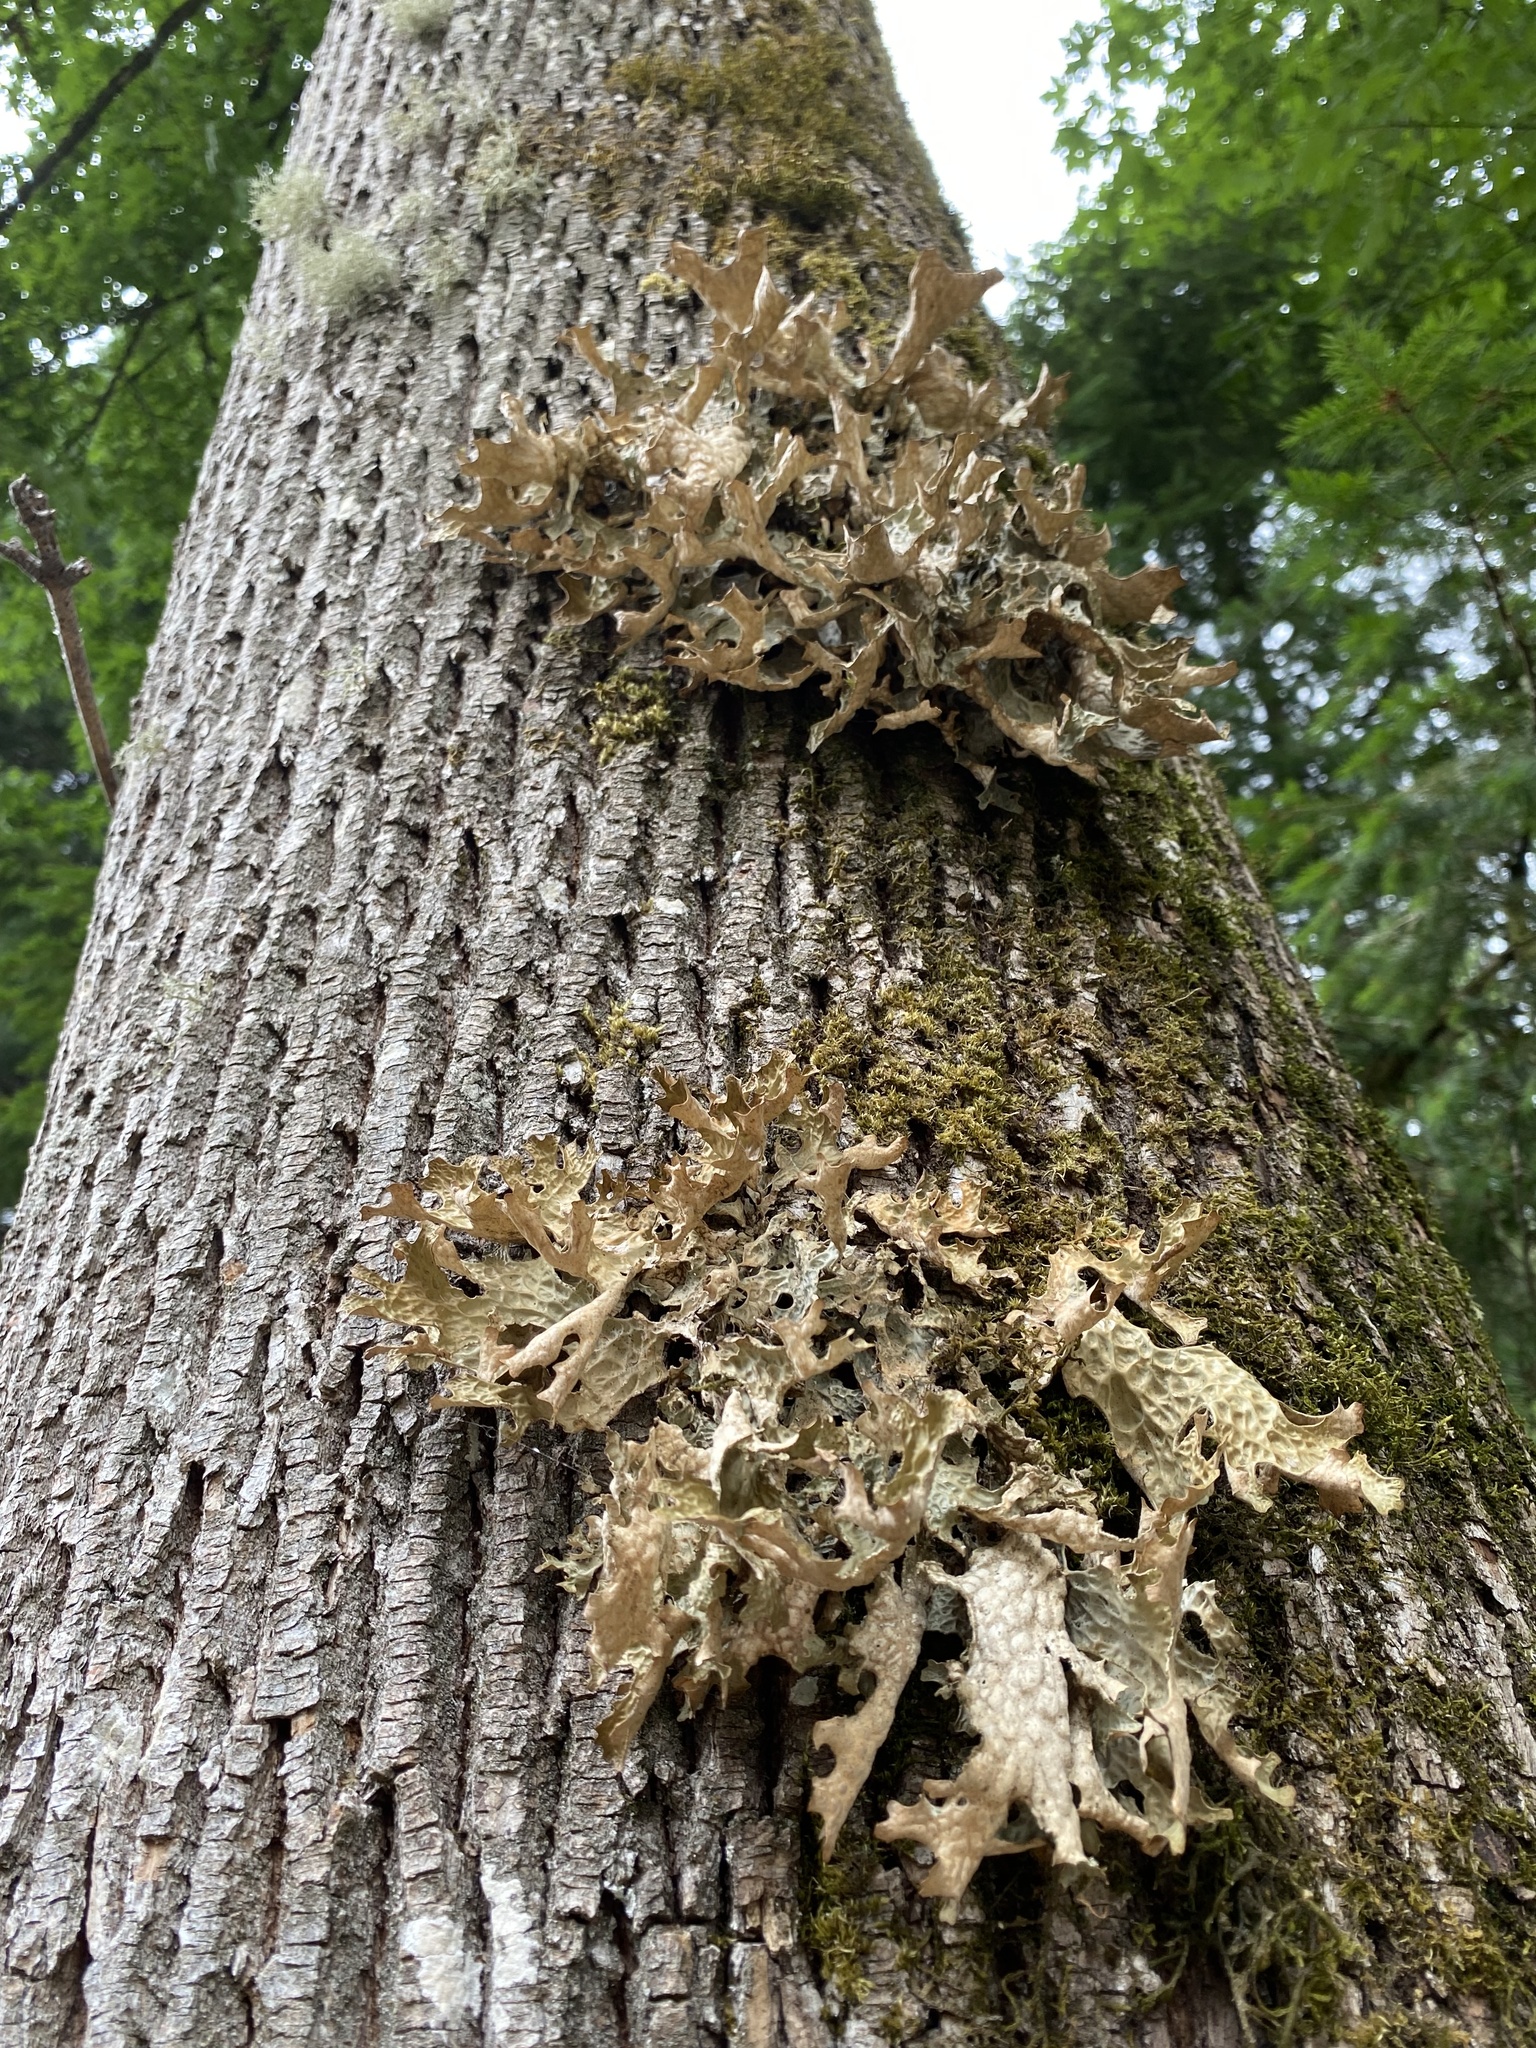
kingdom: Fungi
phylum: Ascomycota
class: Lecanoromycetes
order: Peltigerales
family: Lobariaceae
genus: Lobaria
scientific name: Lobaria pulmonaria
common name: Lungwort
